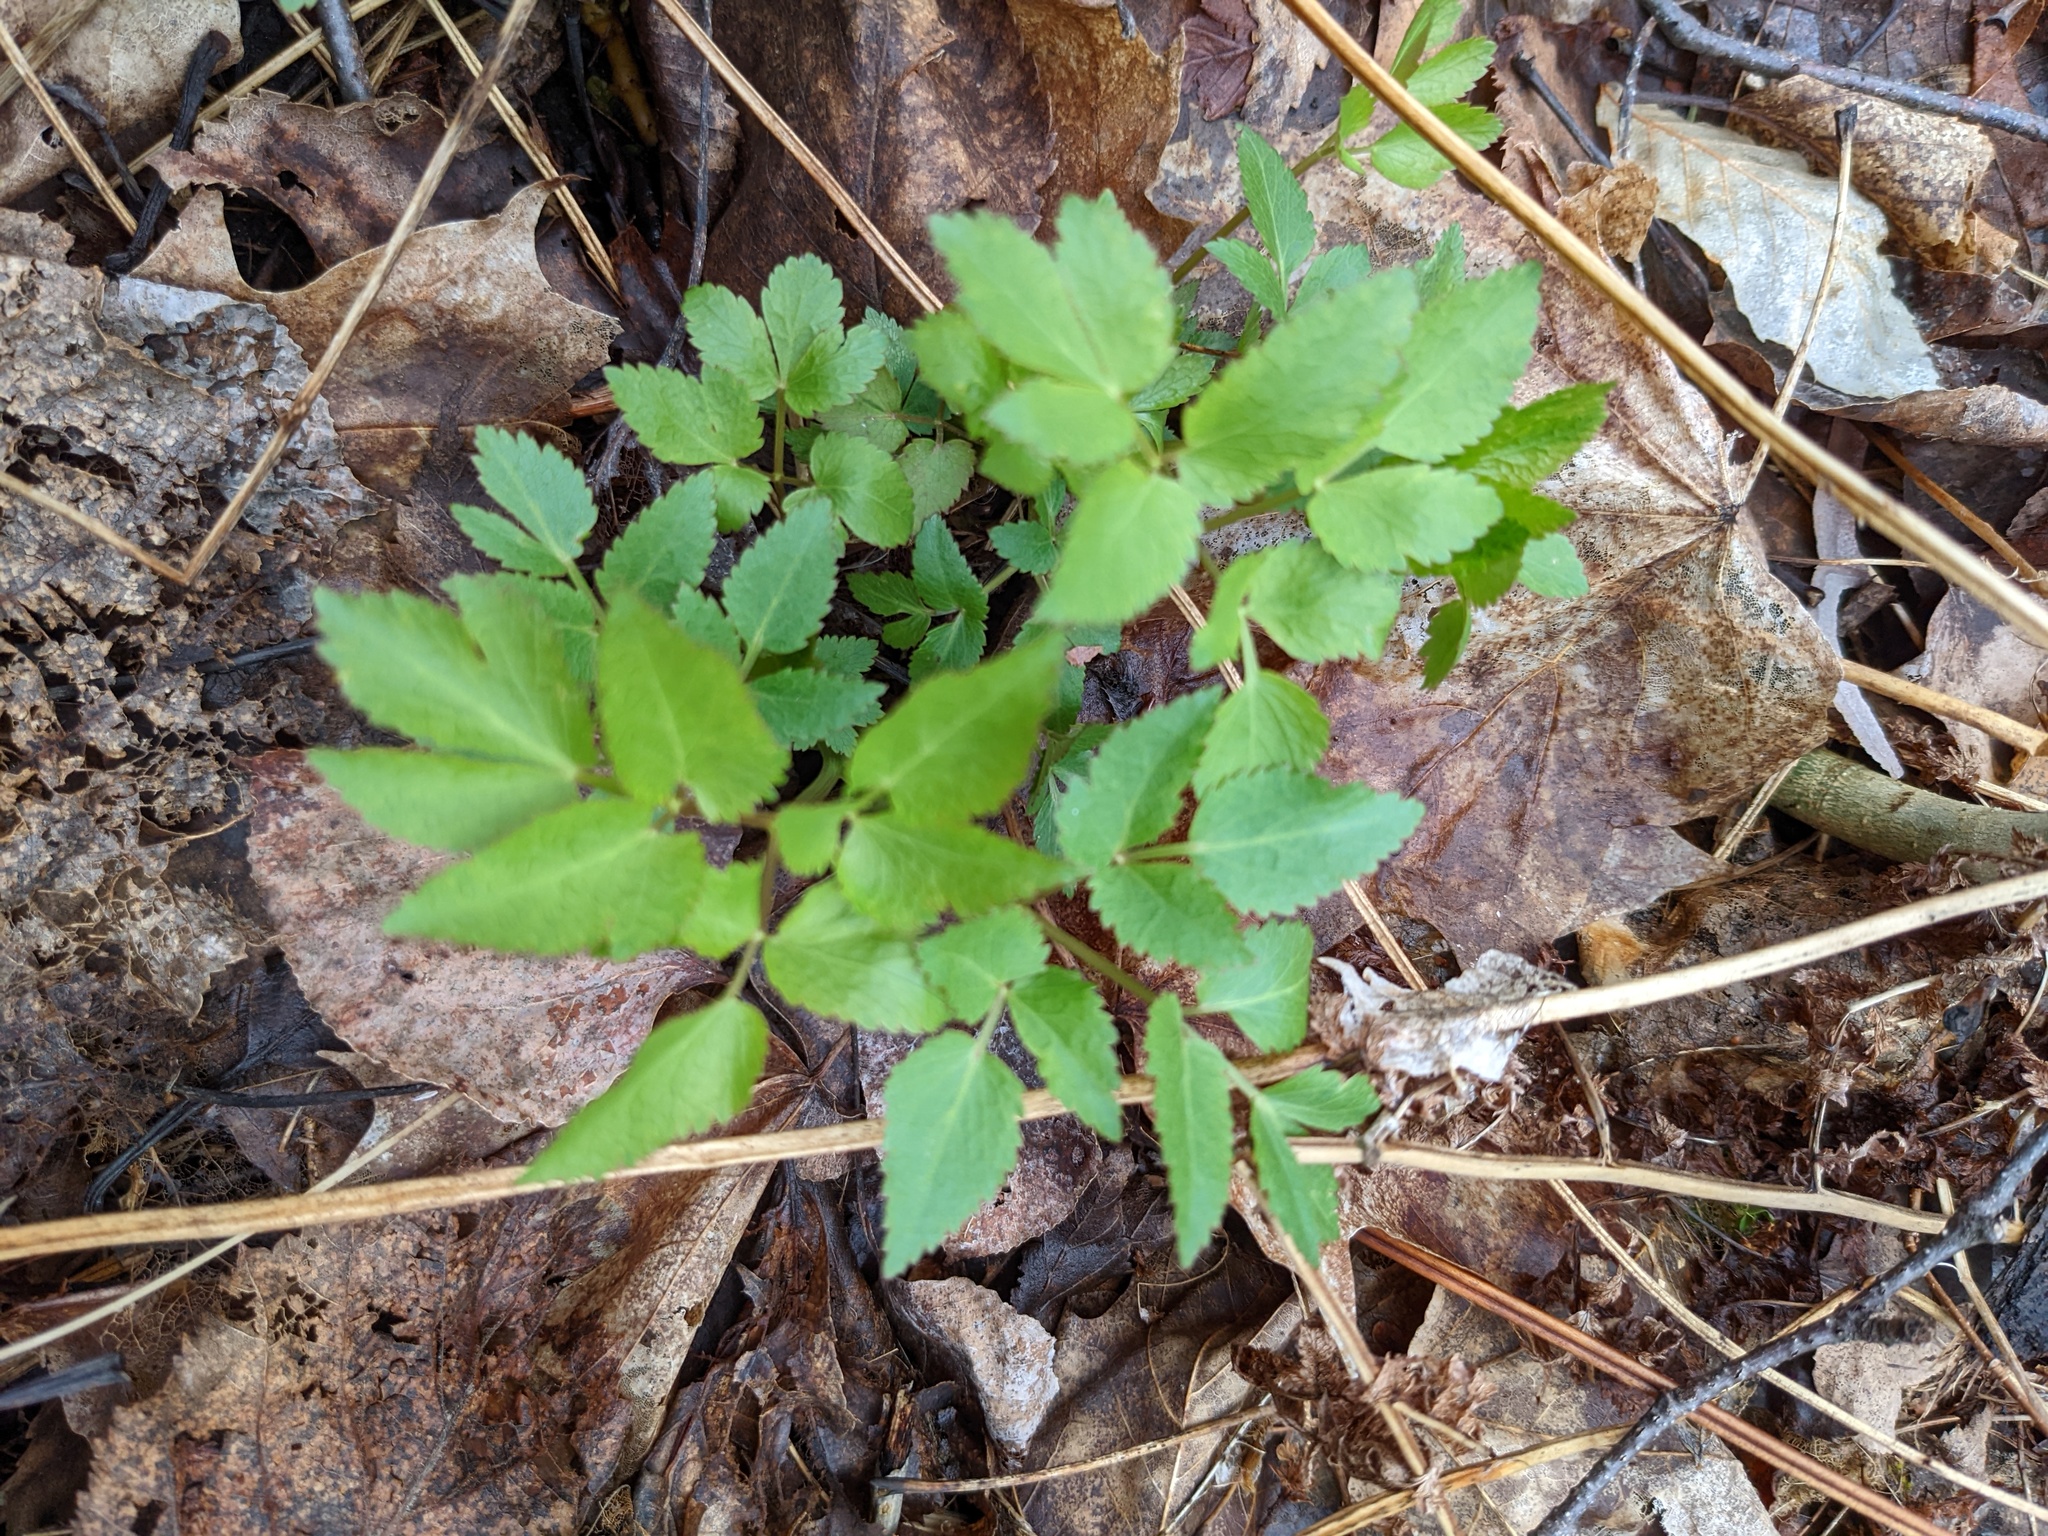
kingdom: Plantae
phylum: Tracheophyta
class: Magnoliopsida
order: Apiales
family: Apiaceae
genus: Zizia
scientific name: Zizia aurea
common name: Golden alexanders
